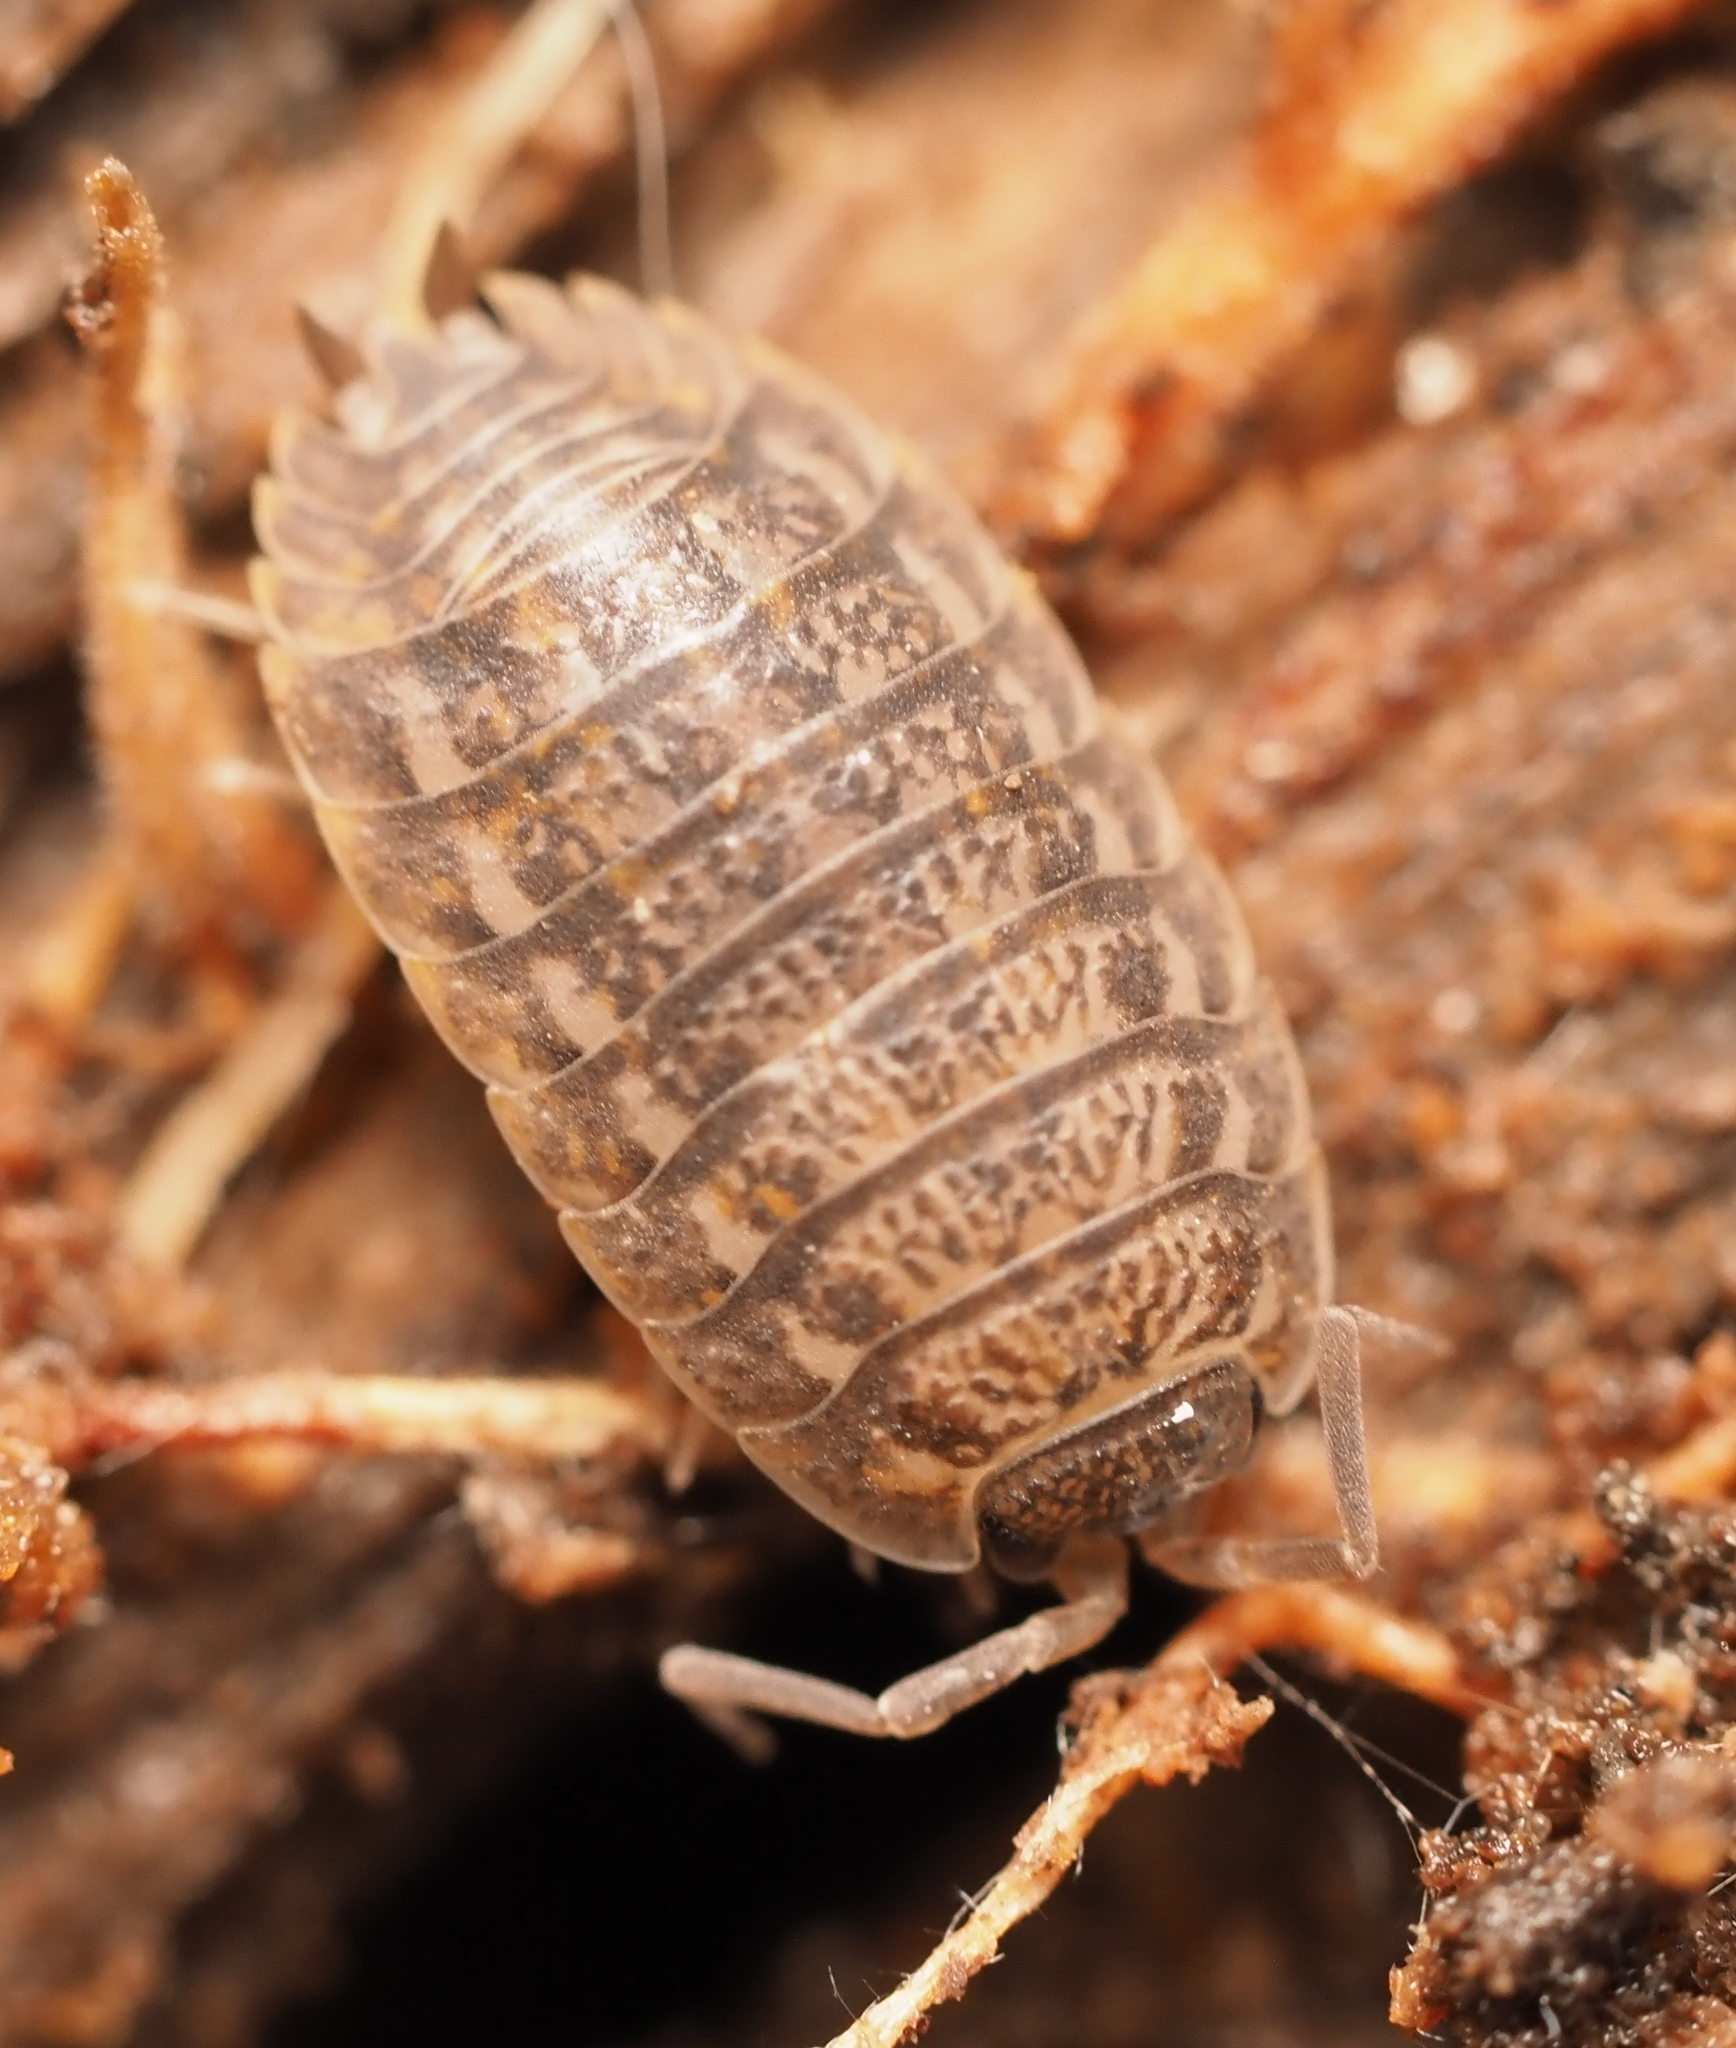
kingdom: Animalia
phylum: Arthropoda
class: Malacostraca
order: Isopoda
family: Trachelipodidae
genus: Trachelipus
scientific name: Trachelipus rathkii
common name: Isopod
